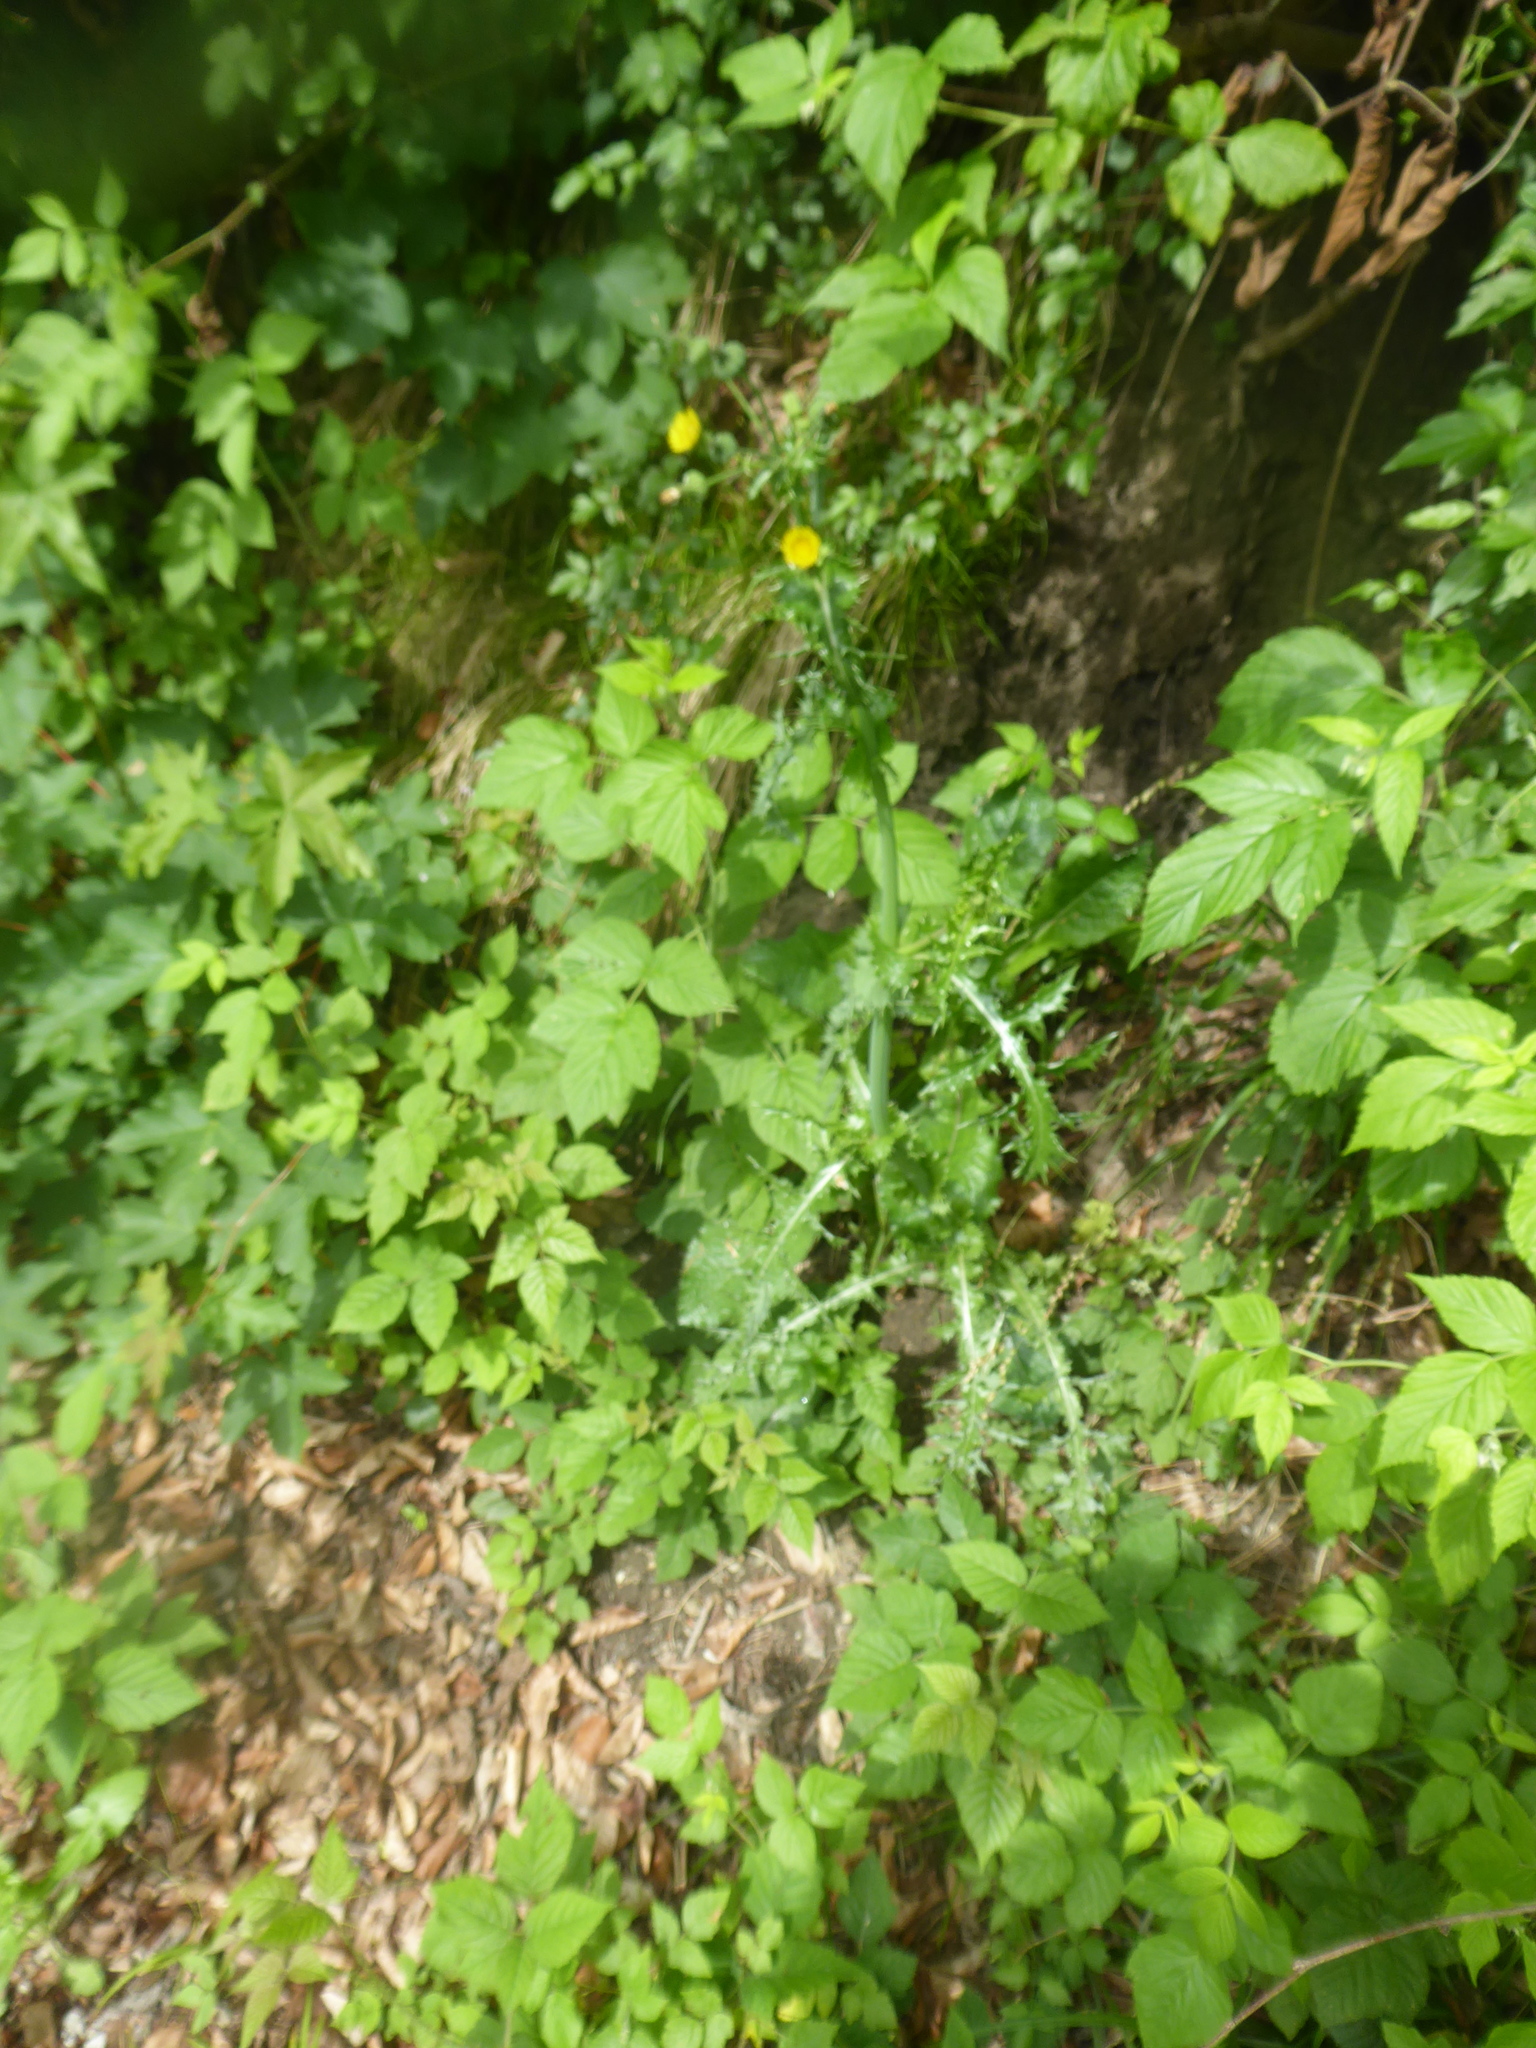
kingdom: Plantae
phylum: Tracheophyta
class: Magnoliopsida
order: Asterales
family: Asteraceae
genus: Sonchus
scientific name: Sonchus asper
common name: Prickly sow-thistle
